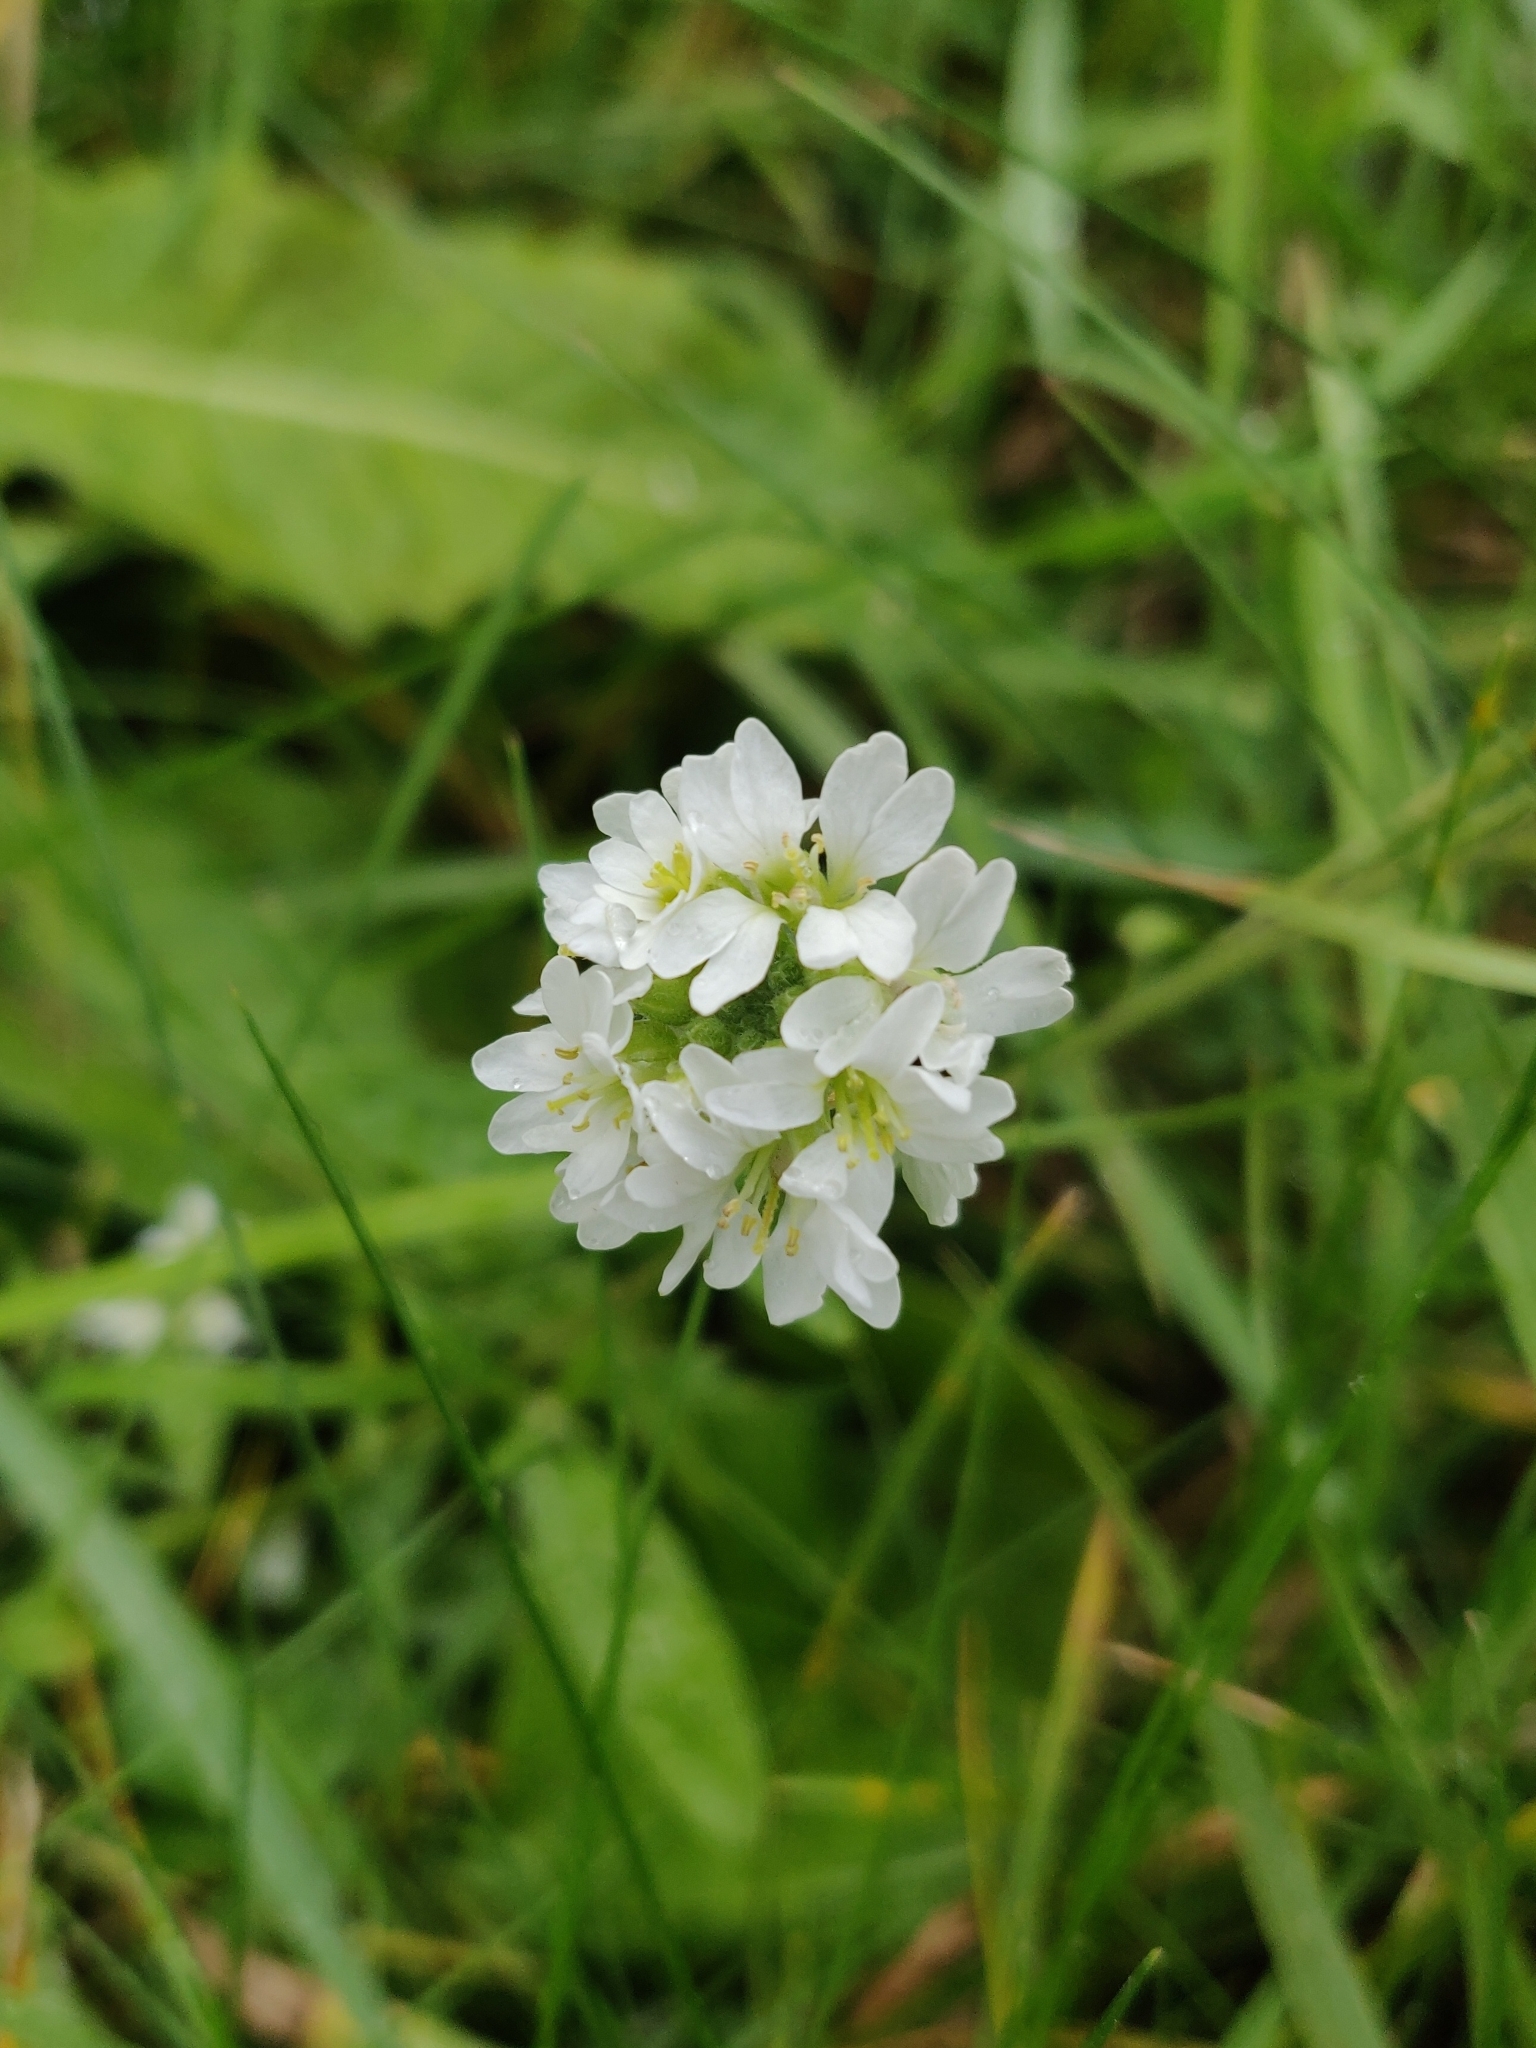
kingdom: Plantae
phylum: Tracheophyta
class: Magnoliopsida
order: Brassicales
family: Brassicaceae
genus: Berteroa
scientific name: Berteroa incana
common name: Hoary alison
